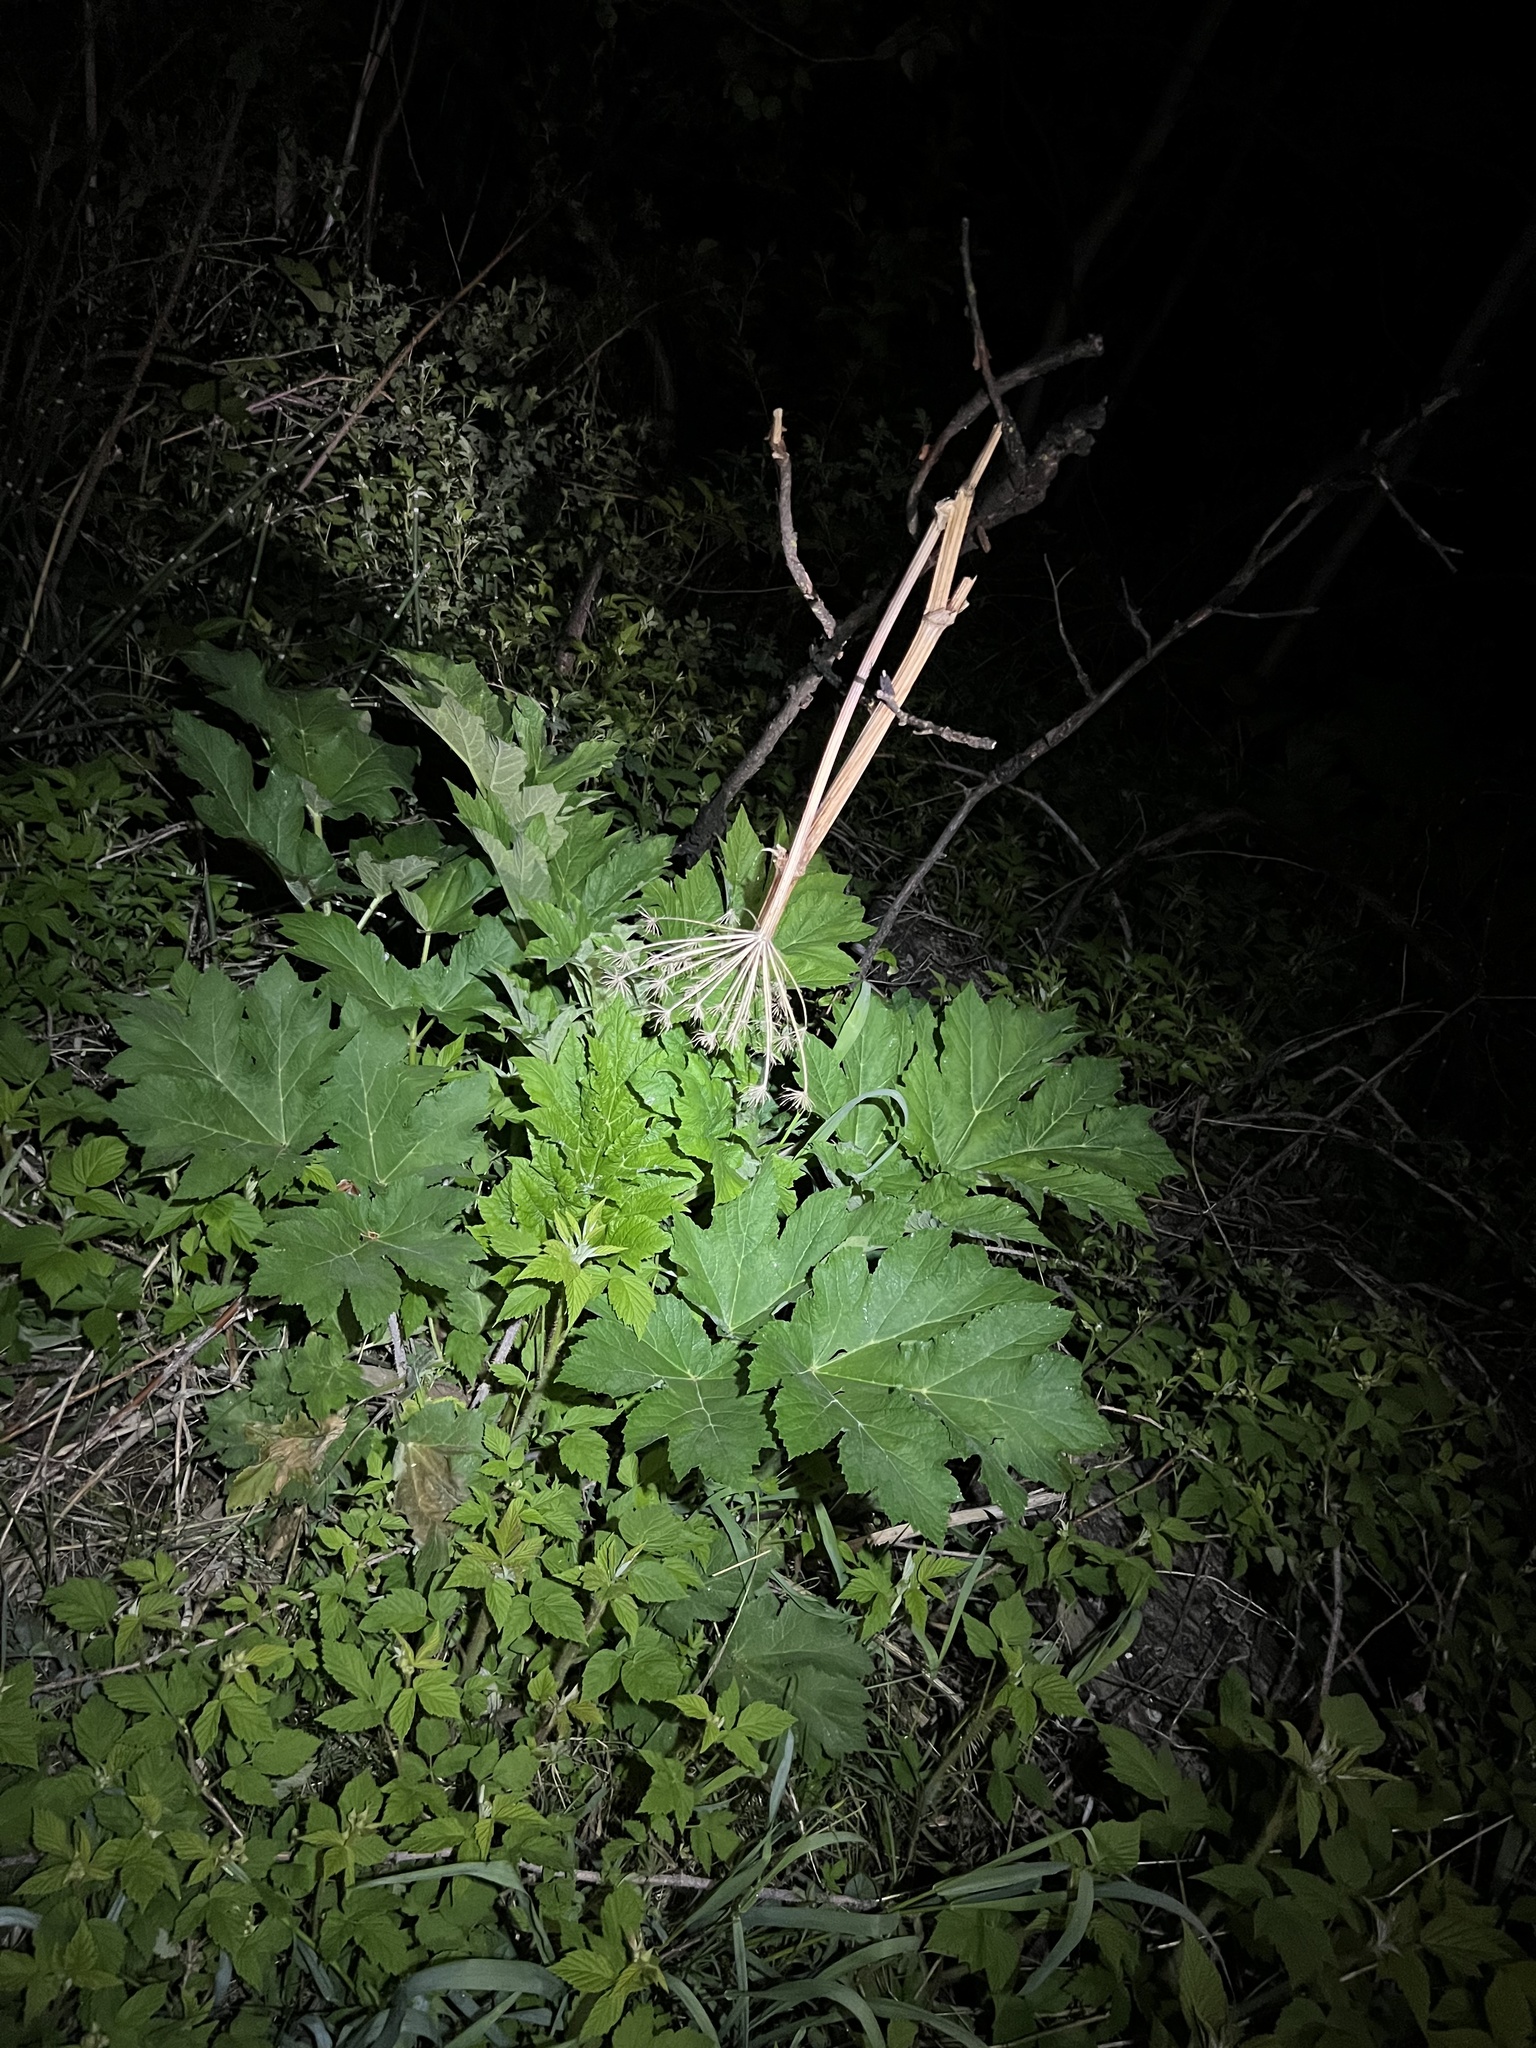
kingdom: Plantae
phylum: Tracheophyta
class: Magnoliopsida
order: Apiales
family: Apiaceae
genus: Heracleum
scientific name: Heracleum maximum
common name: American cow parsnip
